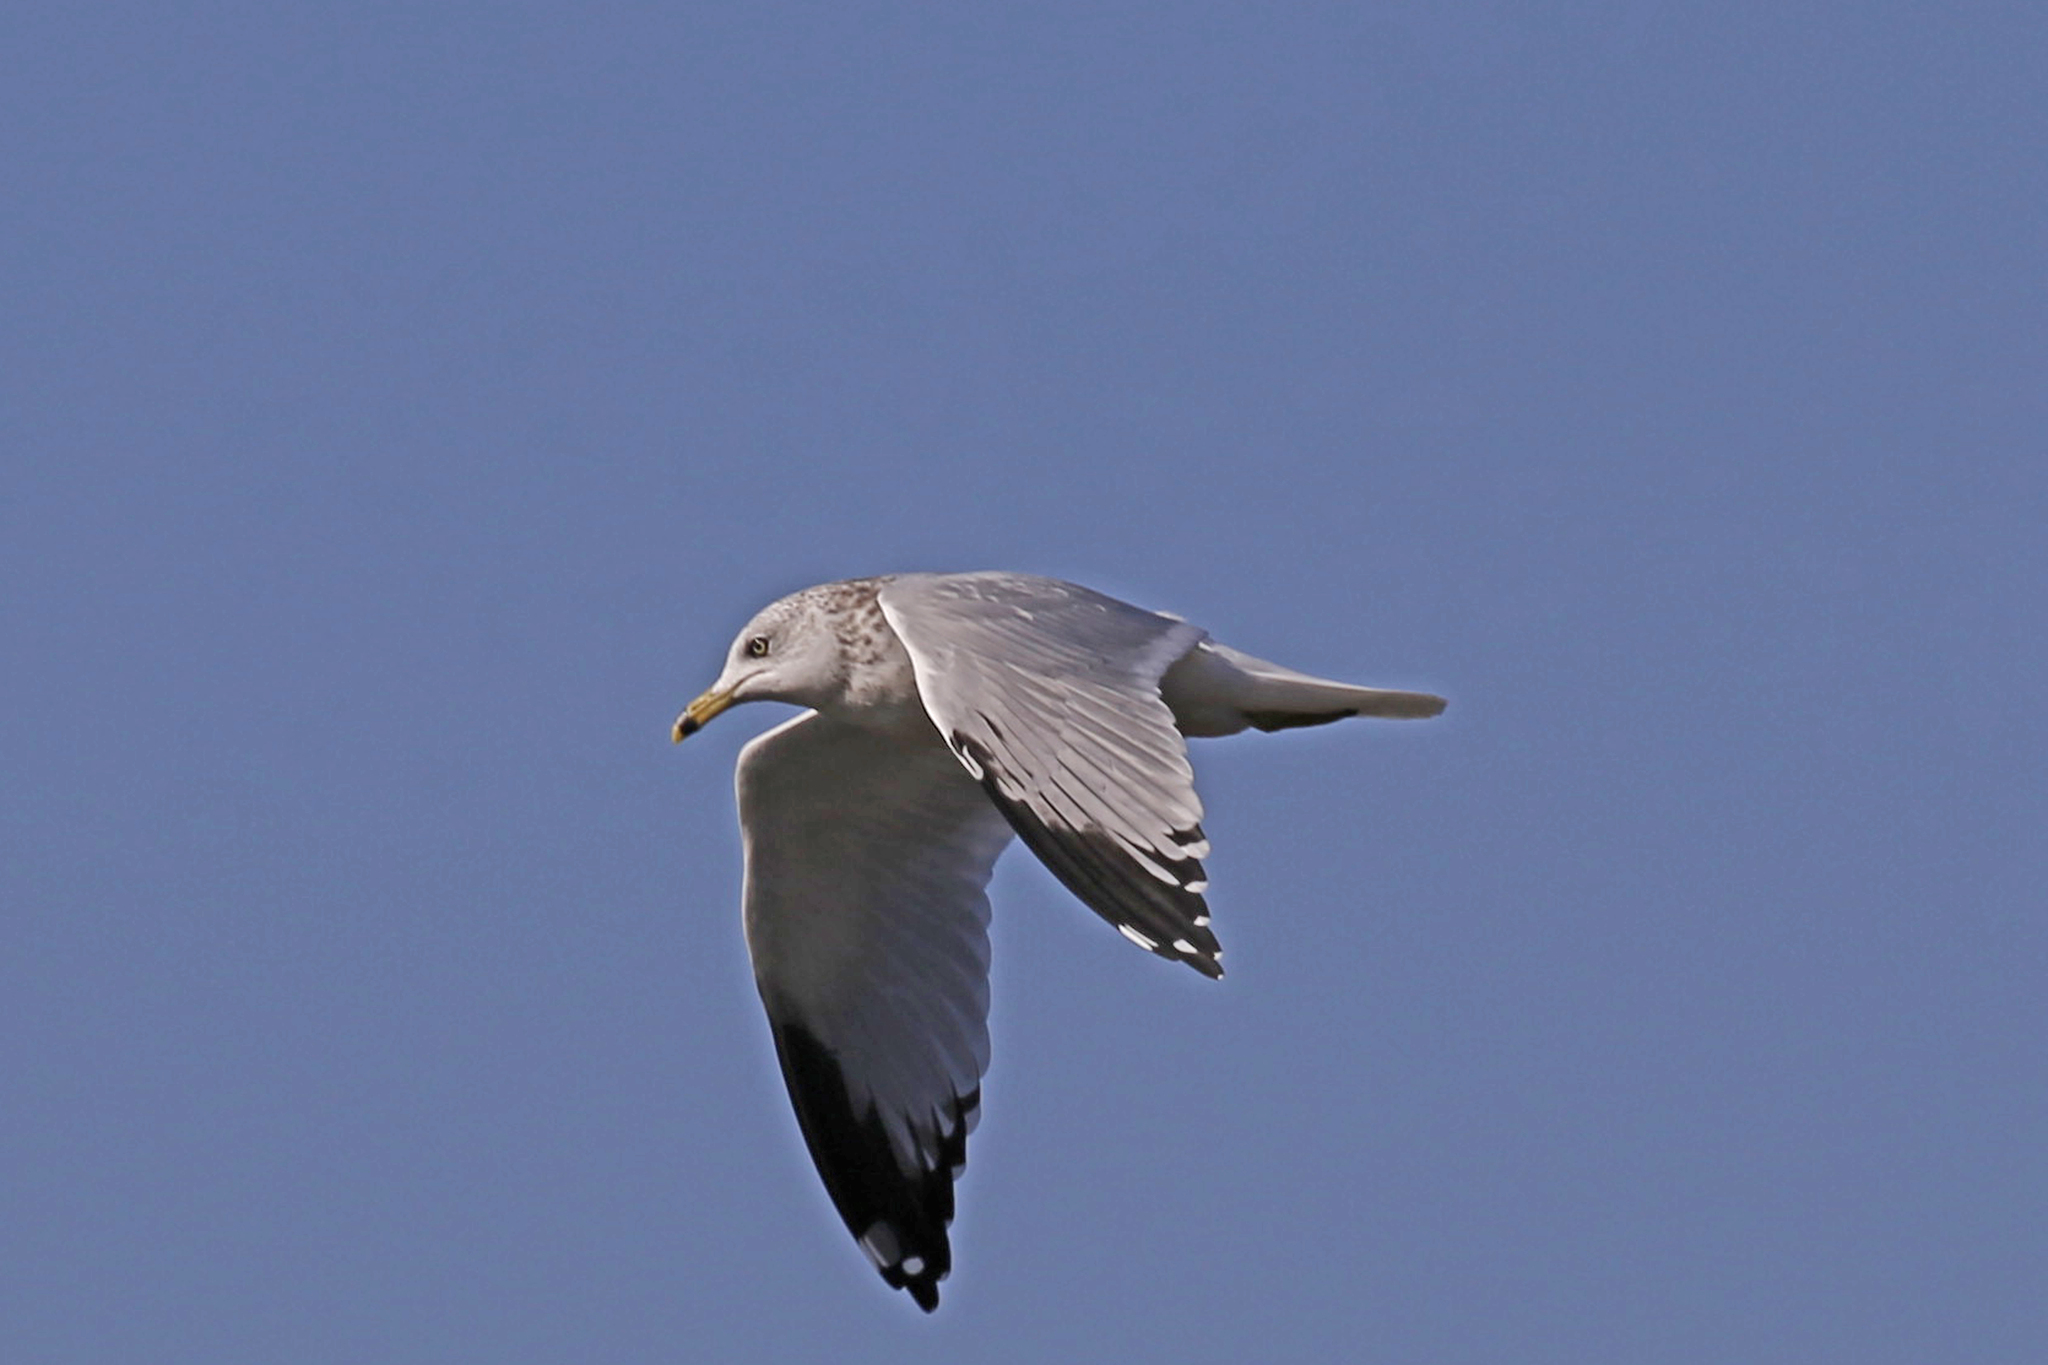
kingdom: Animalia
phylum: Chordata
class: Aves
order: Charadriiformes
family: Laridae
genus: Larus
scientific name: Larus delawarensis
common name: Ring-billed gull
